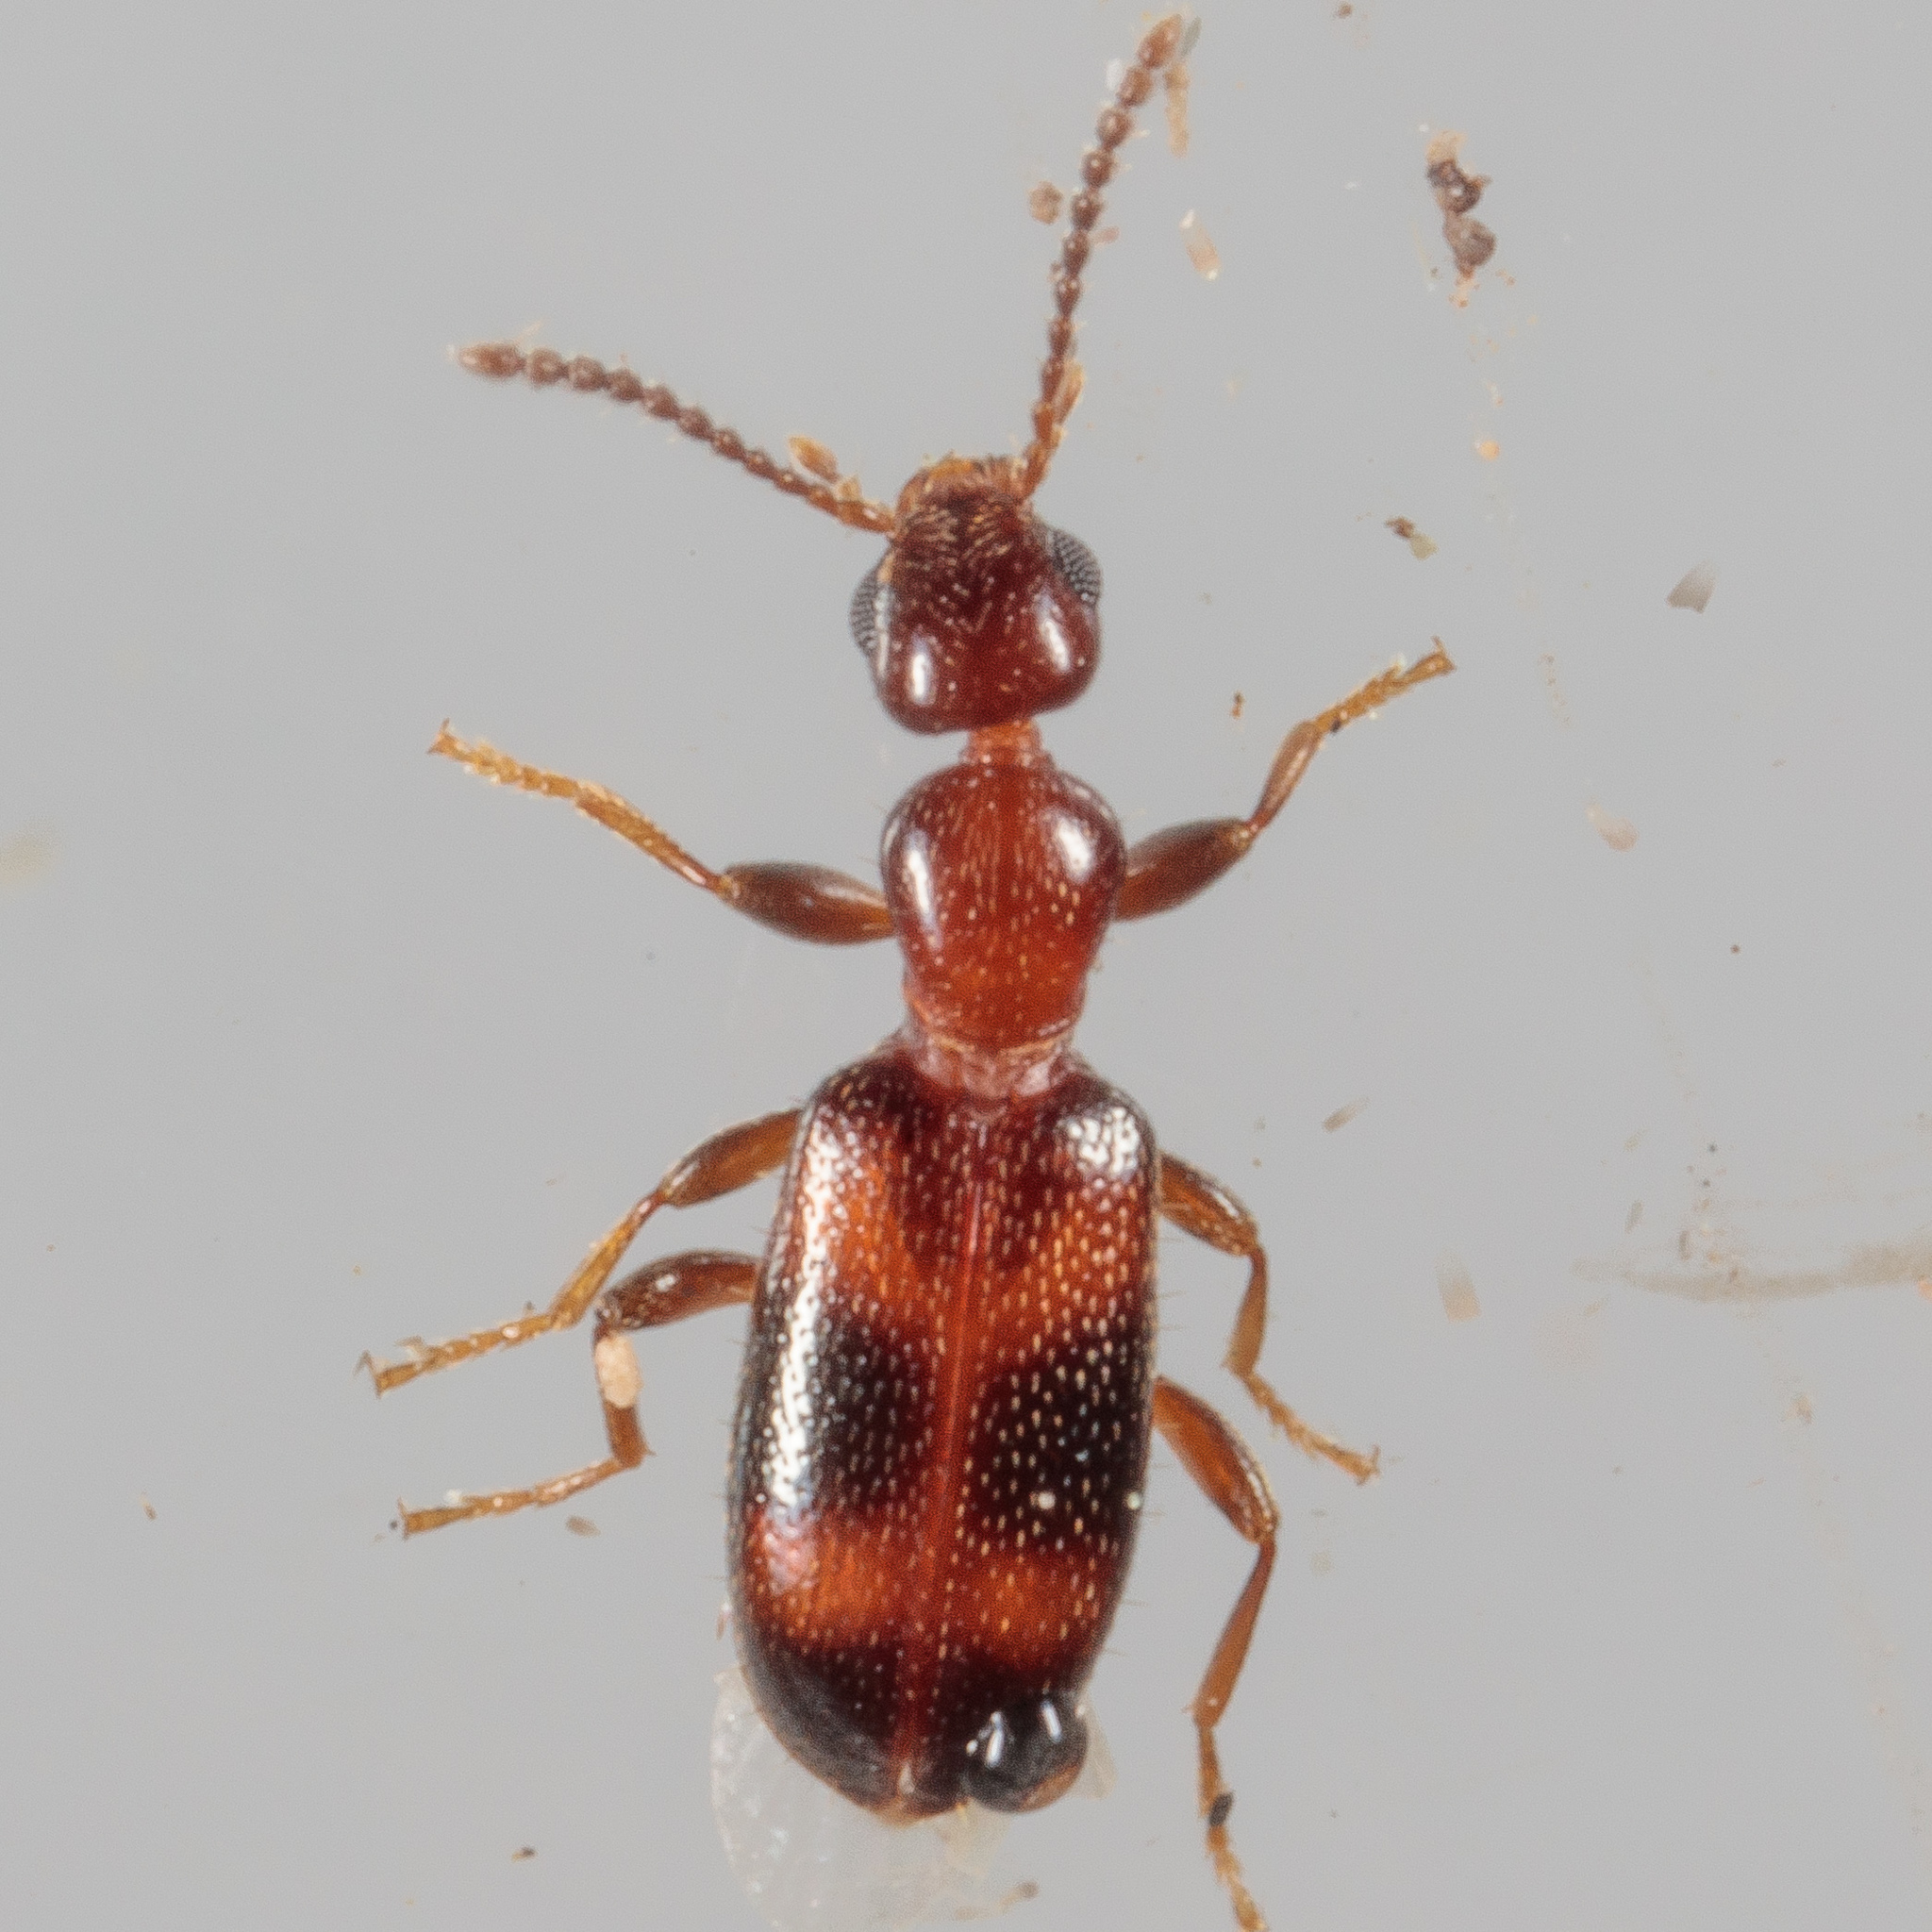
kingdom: Animalia
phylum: Arthropoda
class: Insecta
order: Coleoptera
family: Anthicidae
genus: Vacusus
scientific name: Vacusus vicinus
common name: Antlike flower beetle
